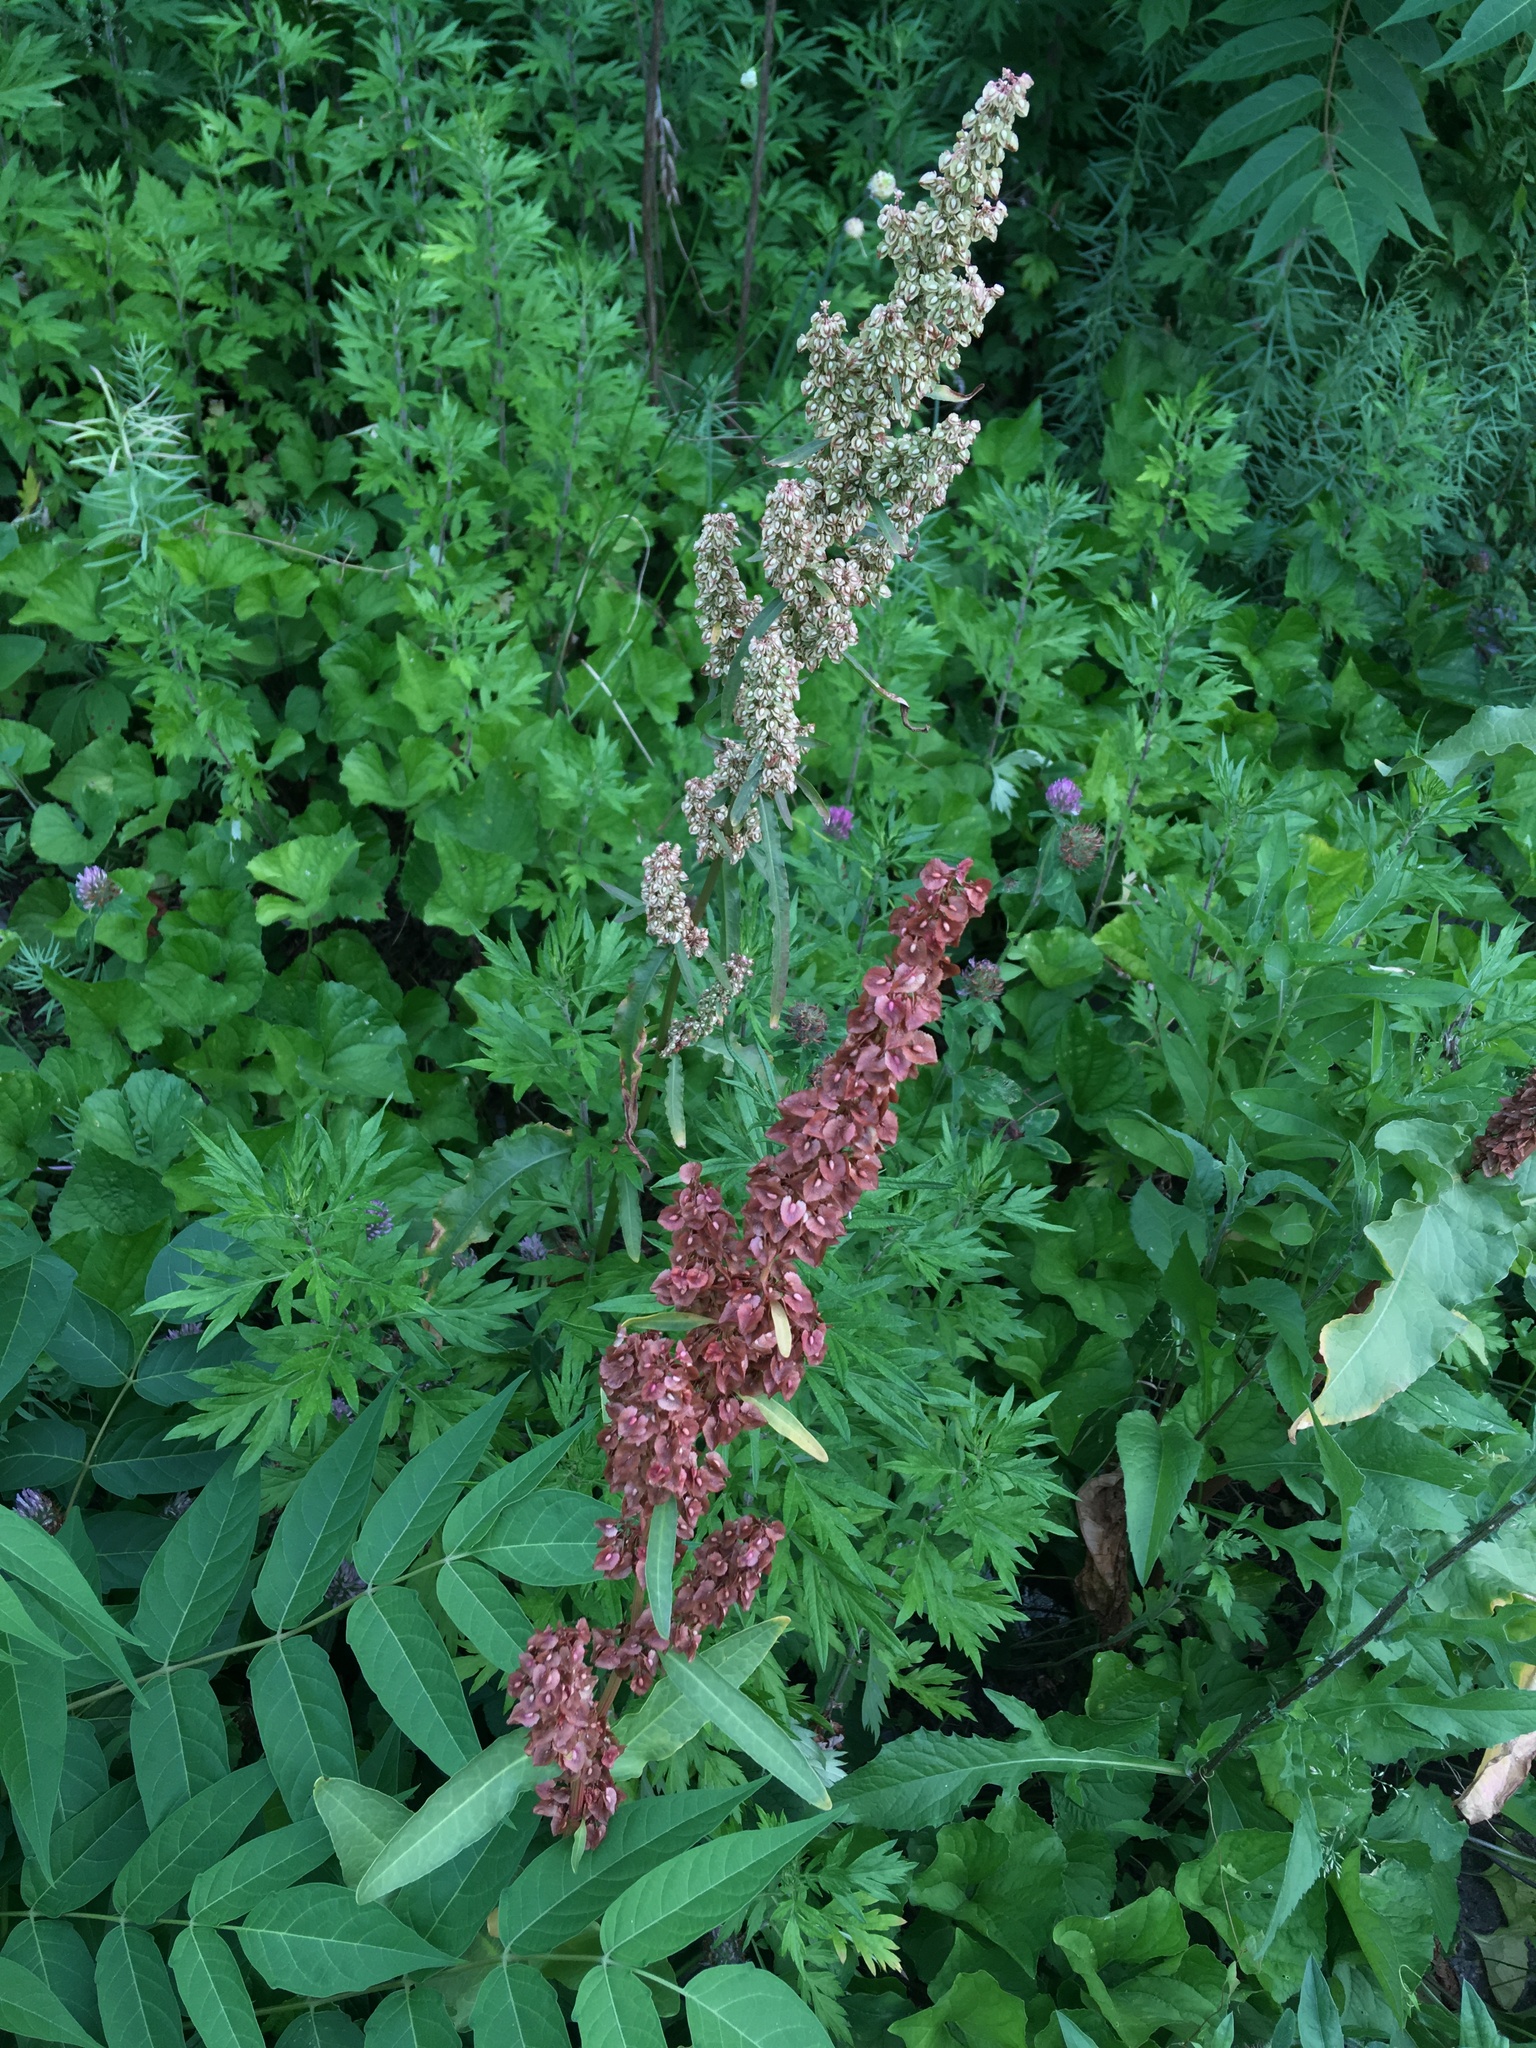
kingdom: Plantae
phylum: Tracheophyta
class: Magnoliopsida
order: Caryophyllales
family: Polygonaceae
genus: Rumex
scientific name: Rumex cristatus
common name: Greek dock
